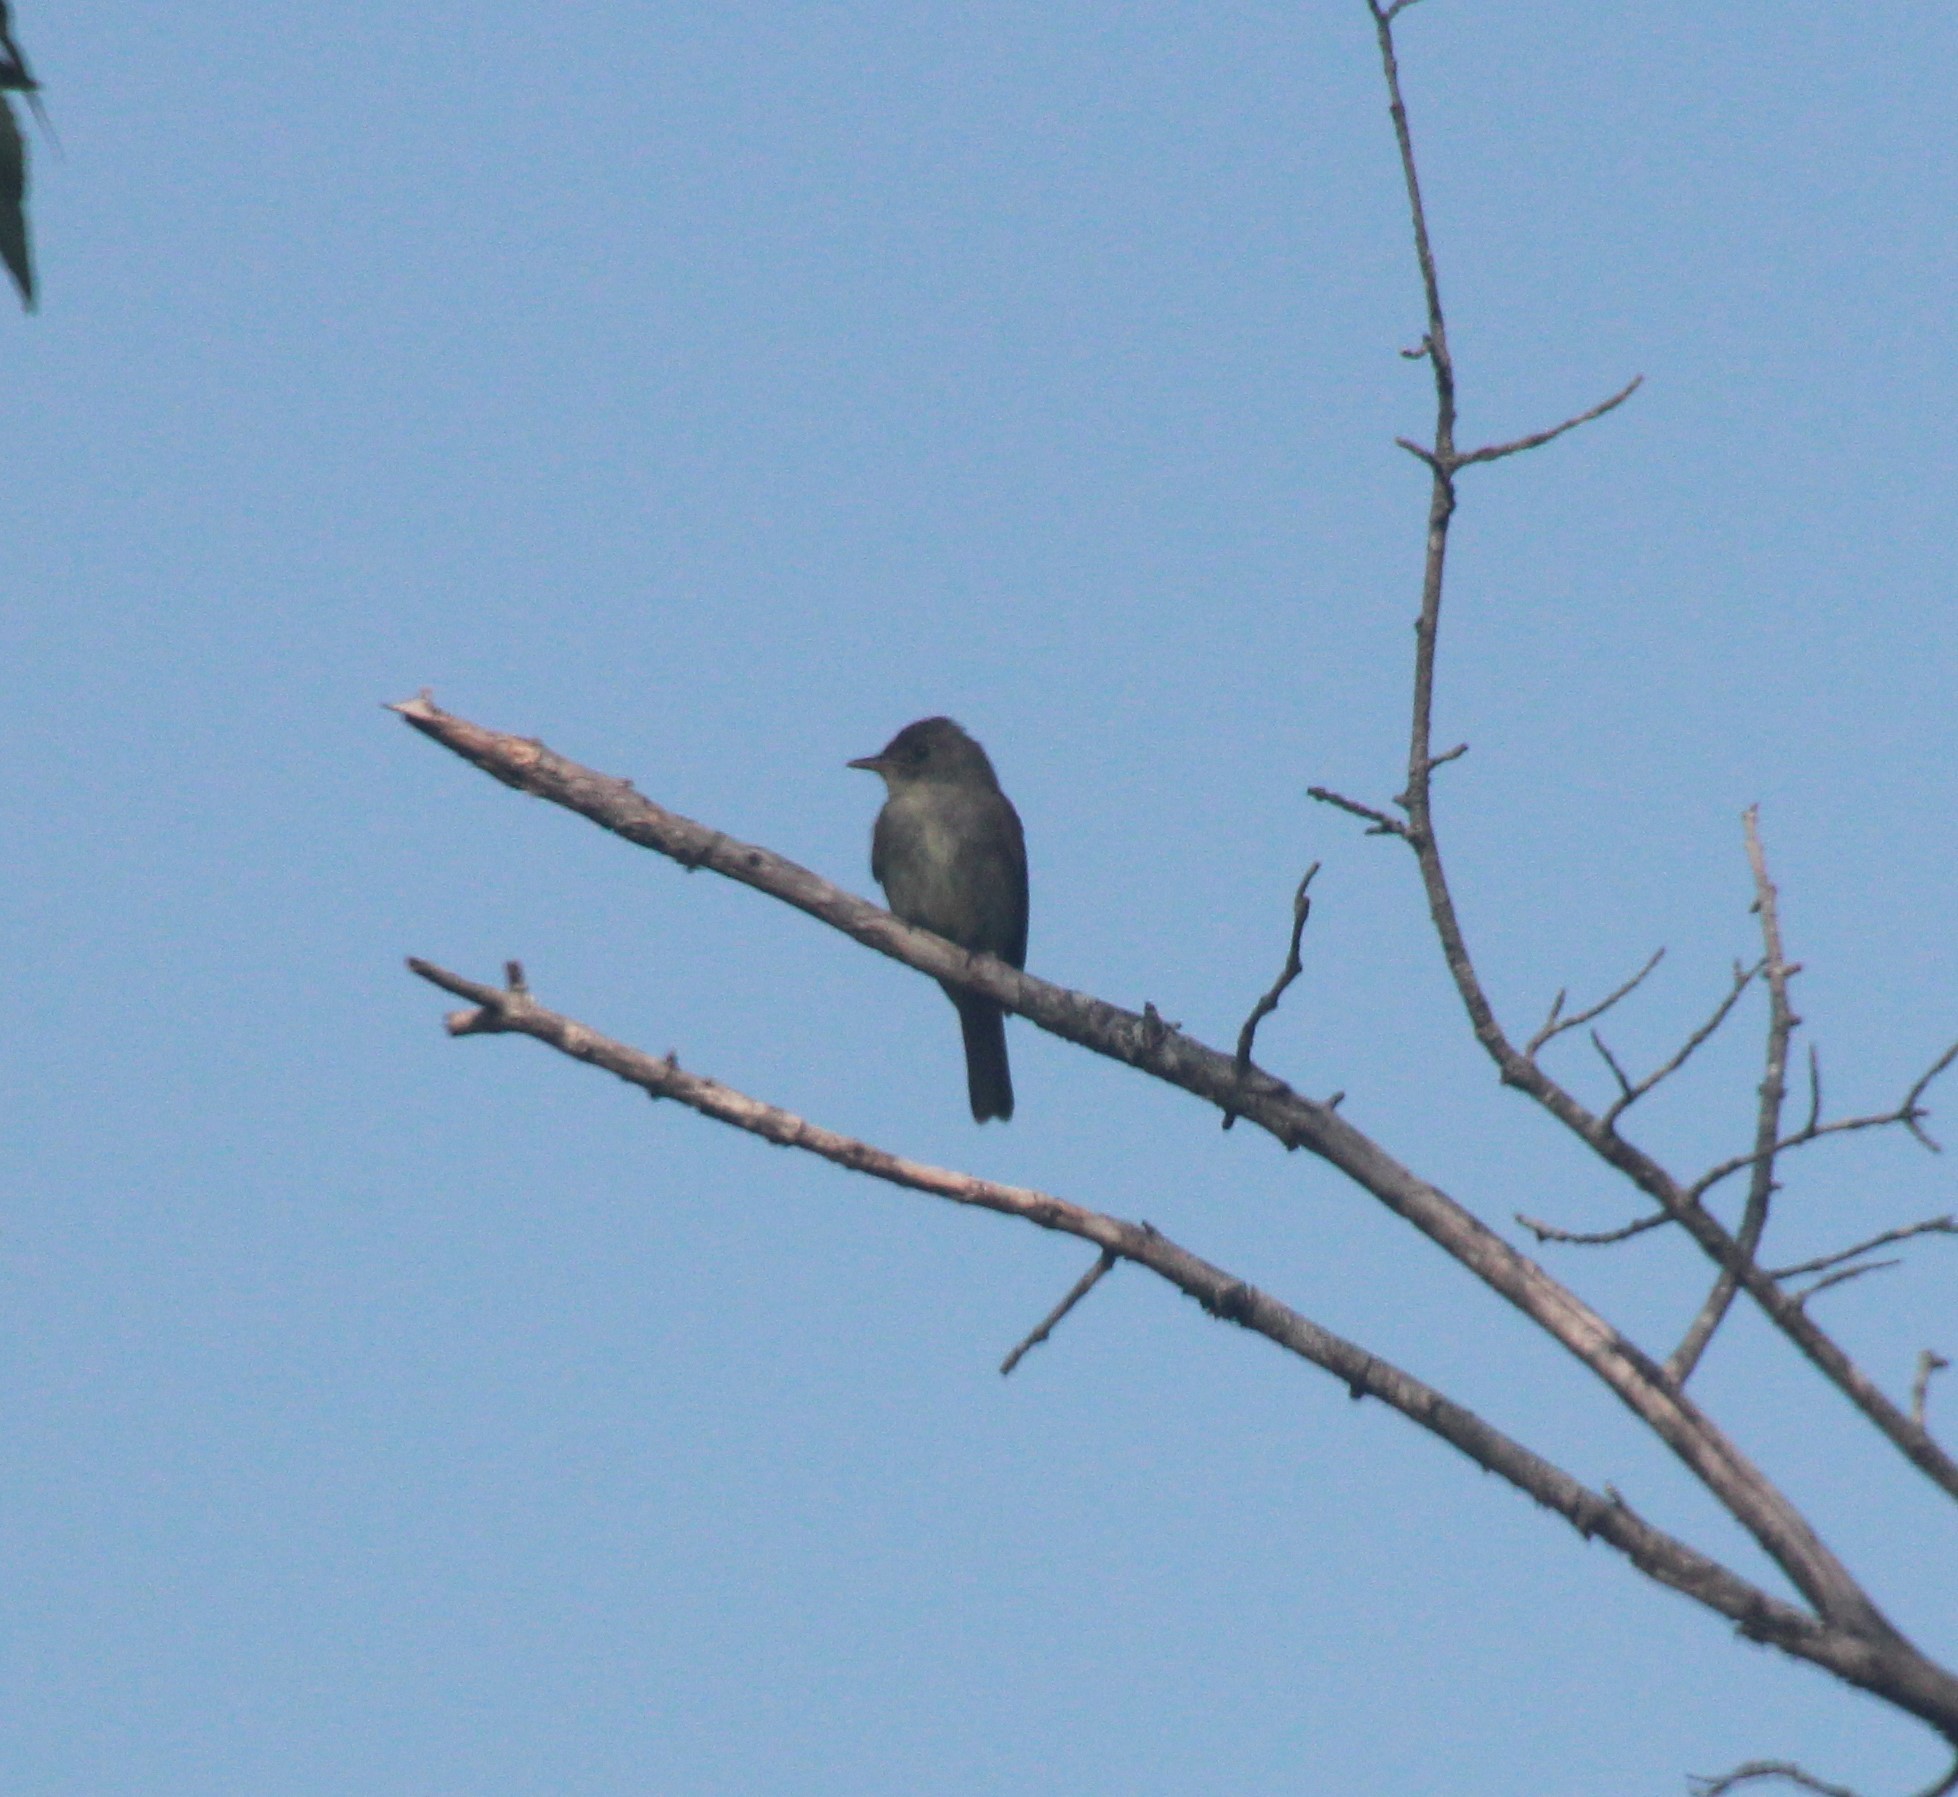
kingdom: Animalia
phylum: Chordata
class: Aves
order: Passeriformes
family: Tyrannidae
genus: Contopus
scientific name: Contopus virens
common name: Eastern wood-pewee
